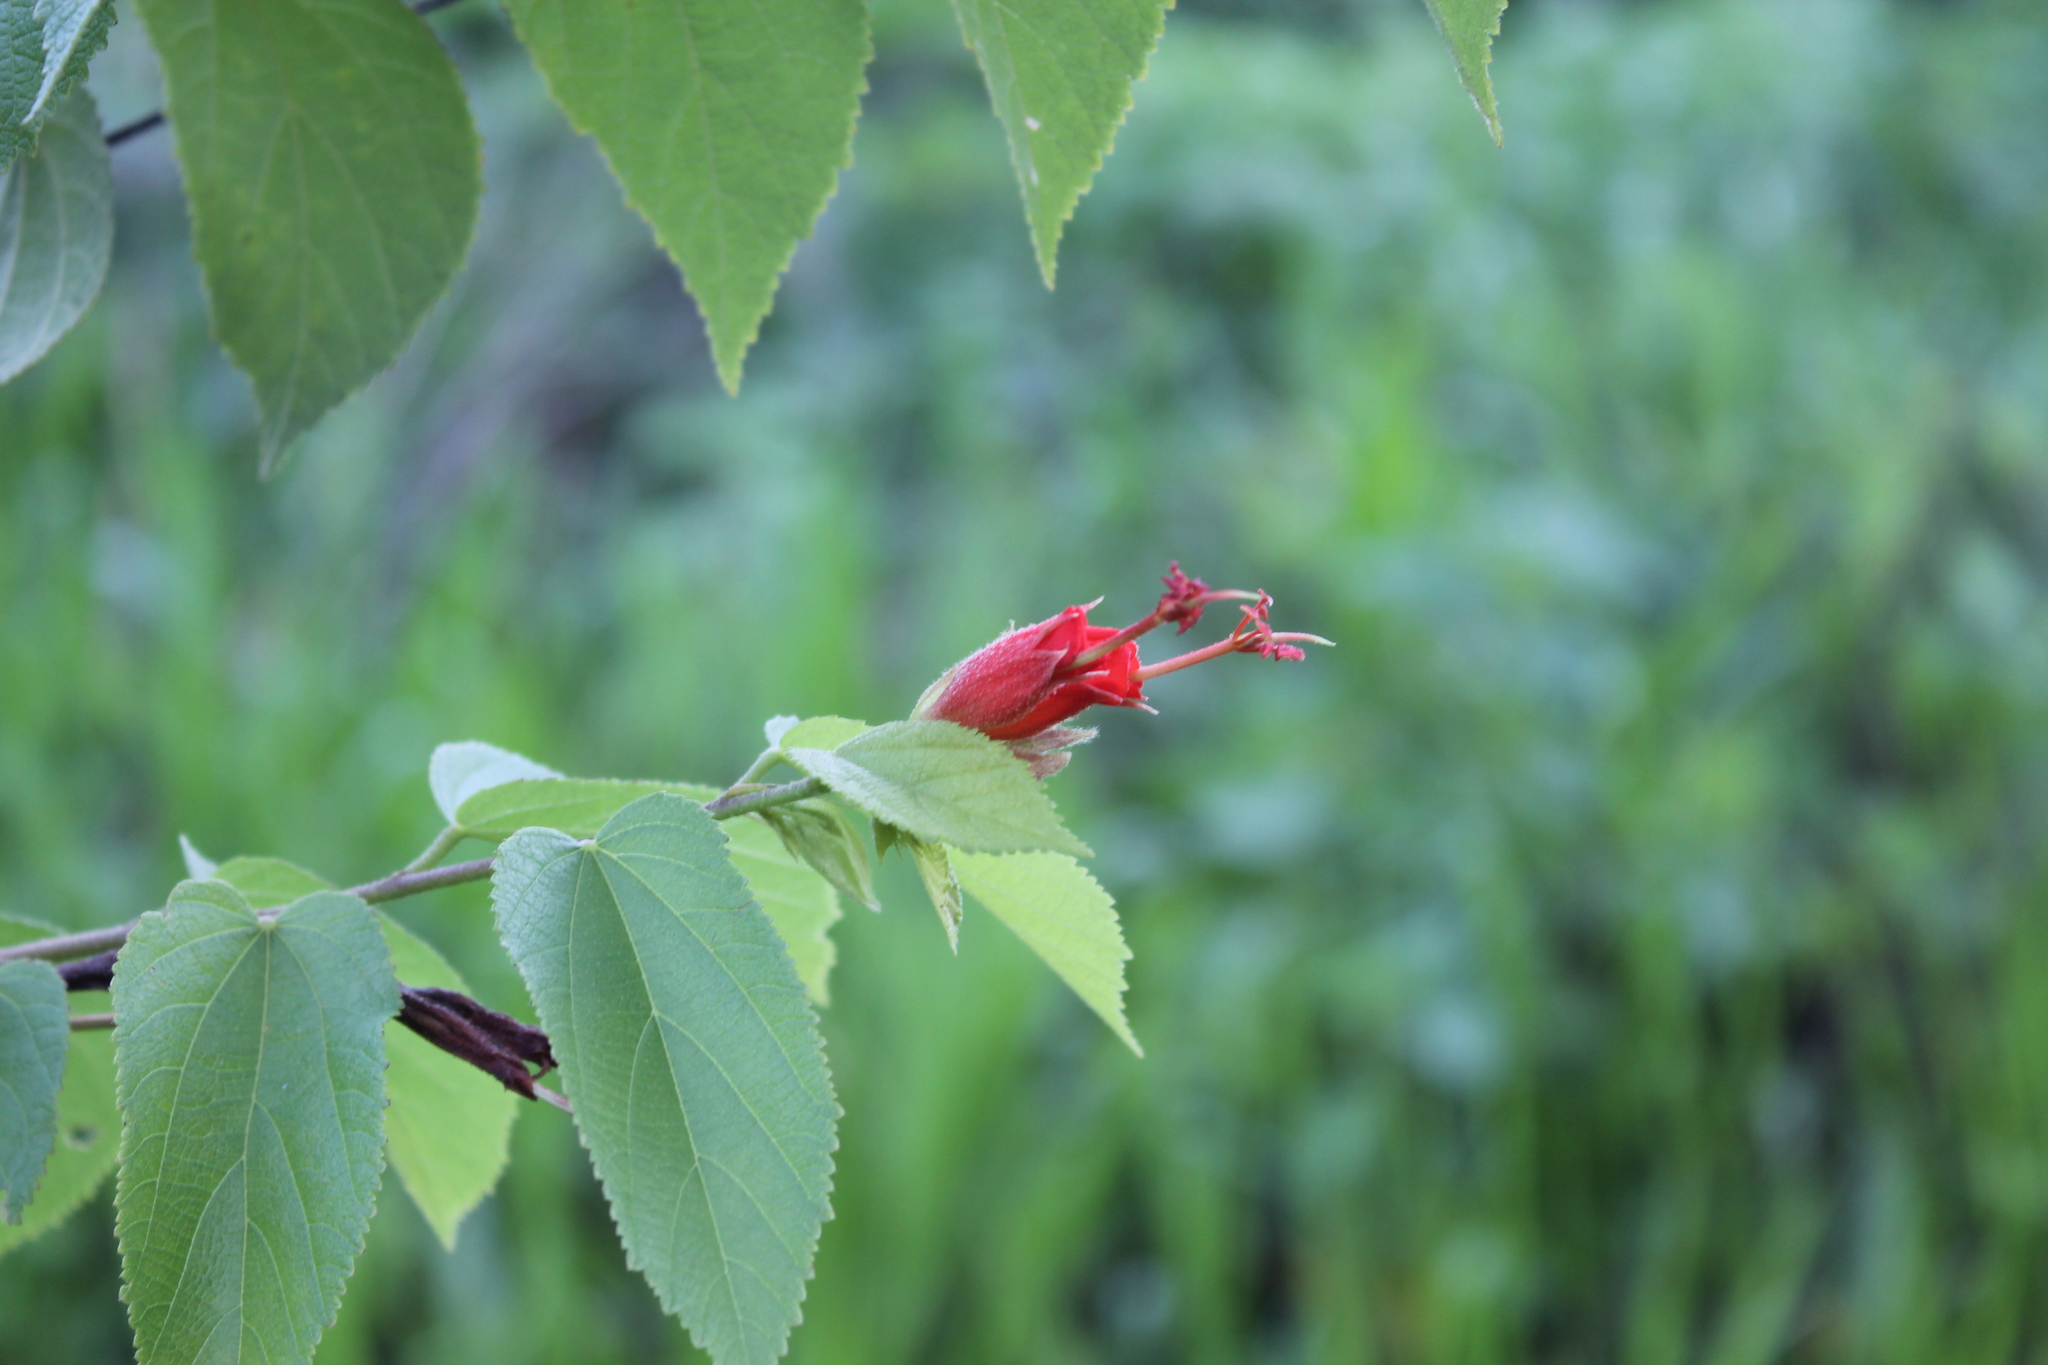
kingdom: Plantae
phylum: Tracheophyta
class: Magnoliopsida
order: Malvales
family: Malvaceae
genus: Helicteres
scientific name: Helicteres guazumifolia
